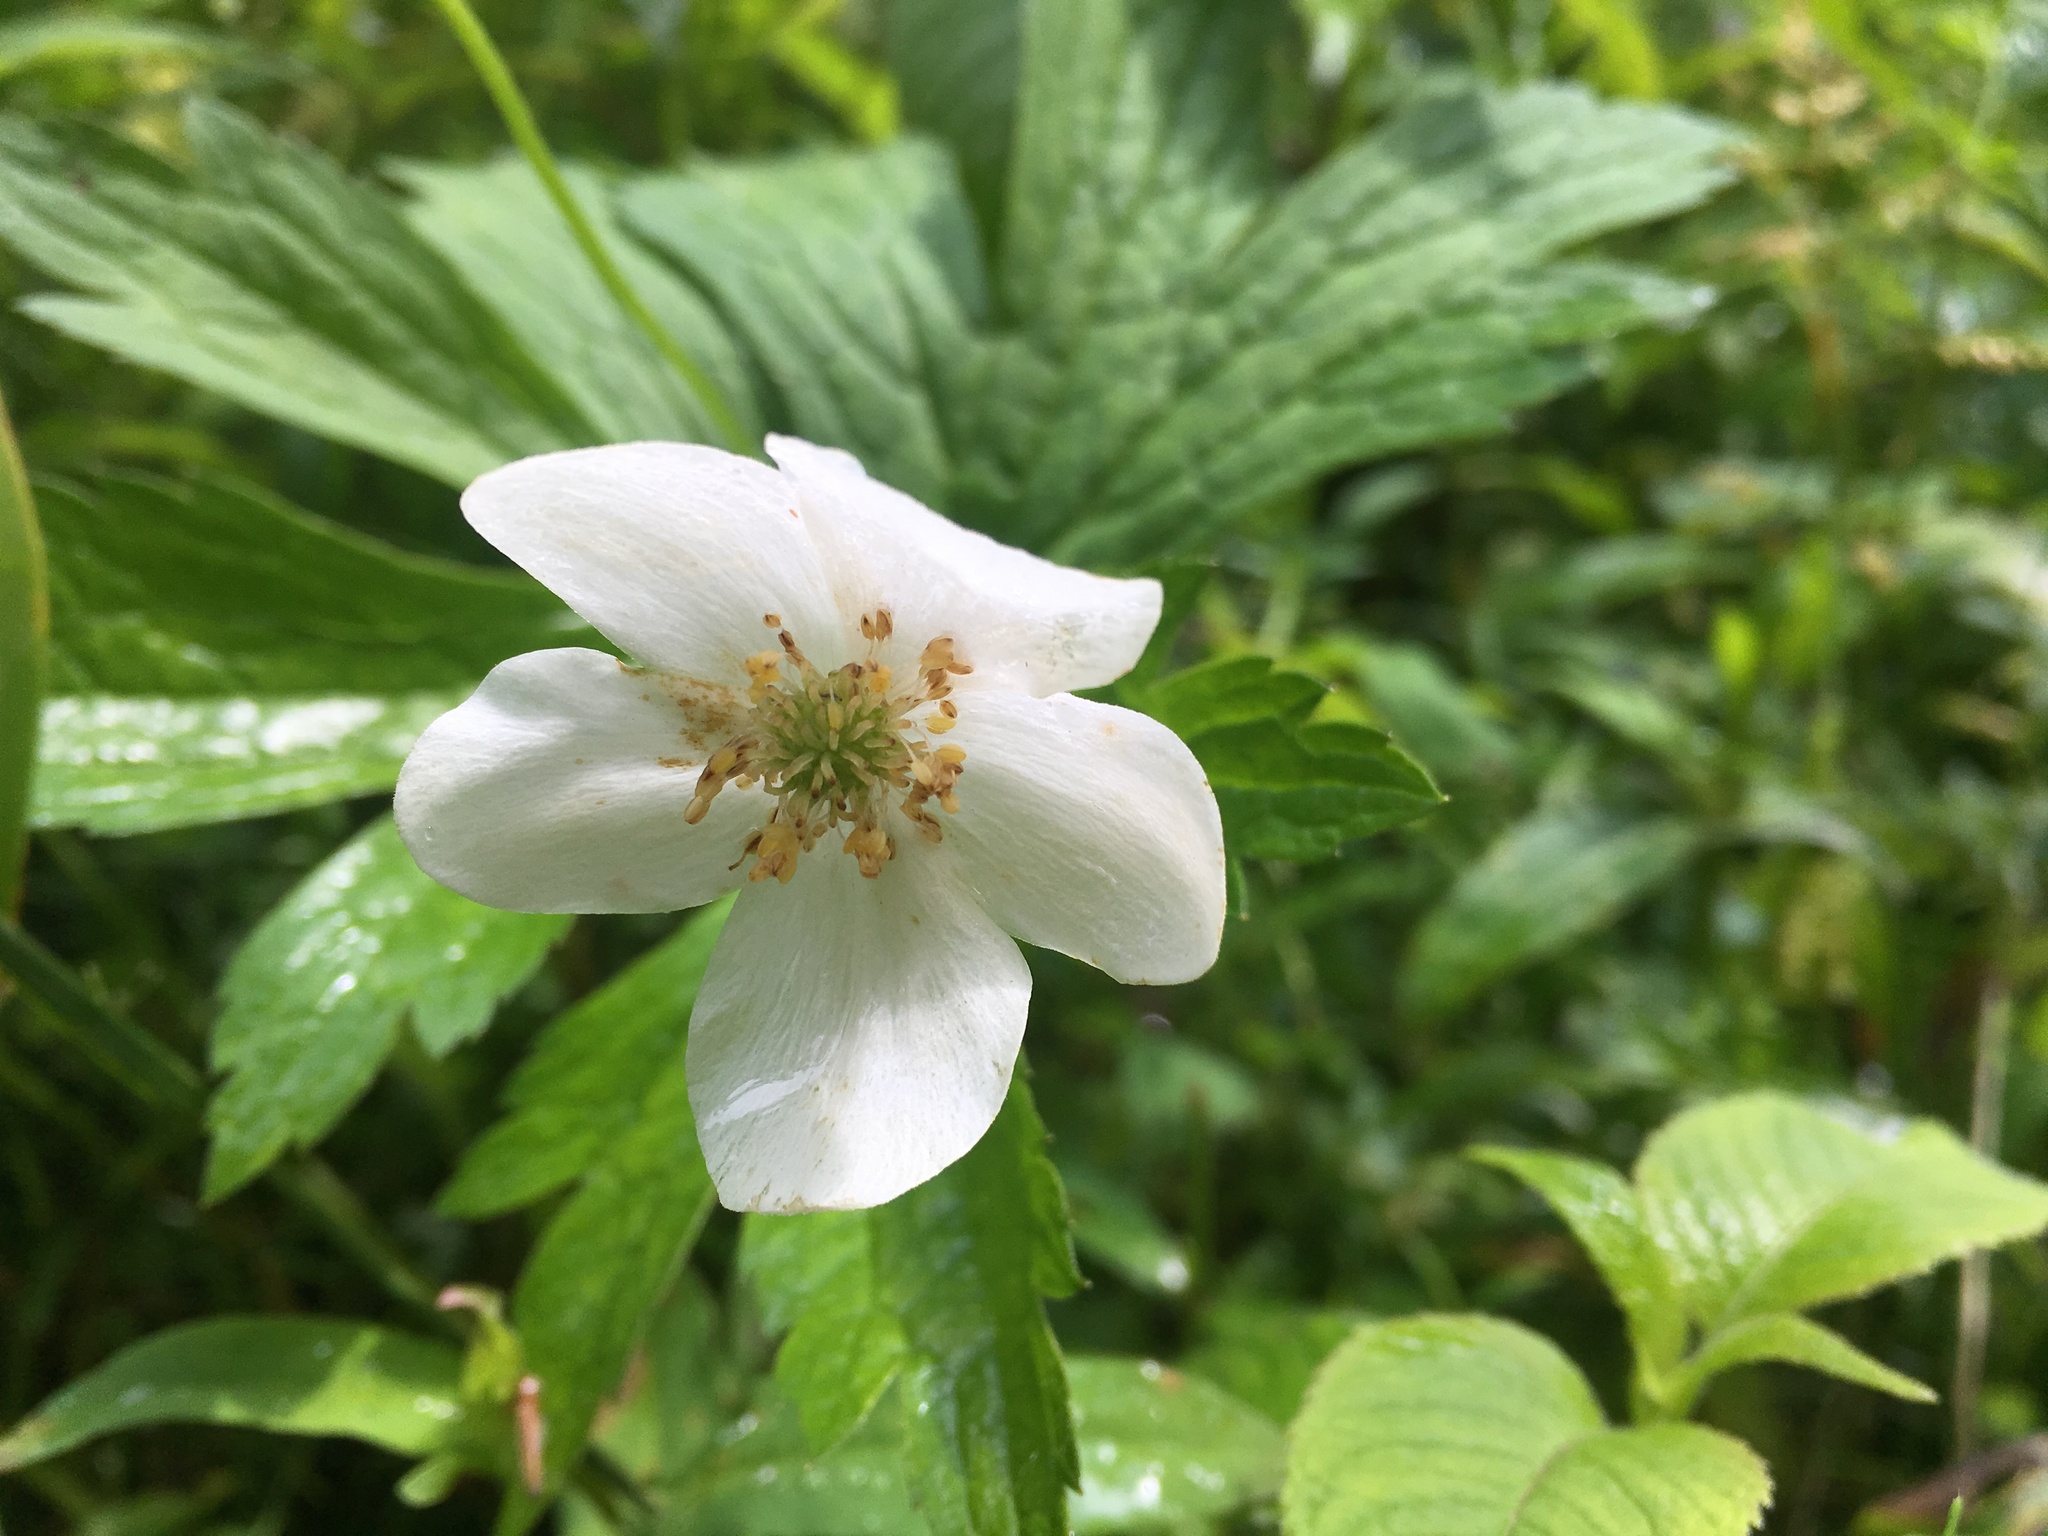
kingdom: Plantae
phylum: Tracheophyta
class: Magnoliopsida
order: Ranunculales
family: Ranunculaceae
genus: Anemonastrum
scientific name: Anemonastrum canadense
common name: Canada anemone
